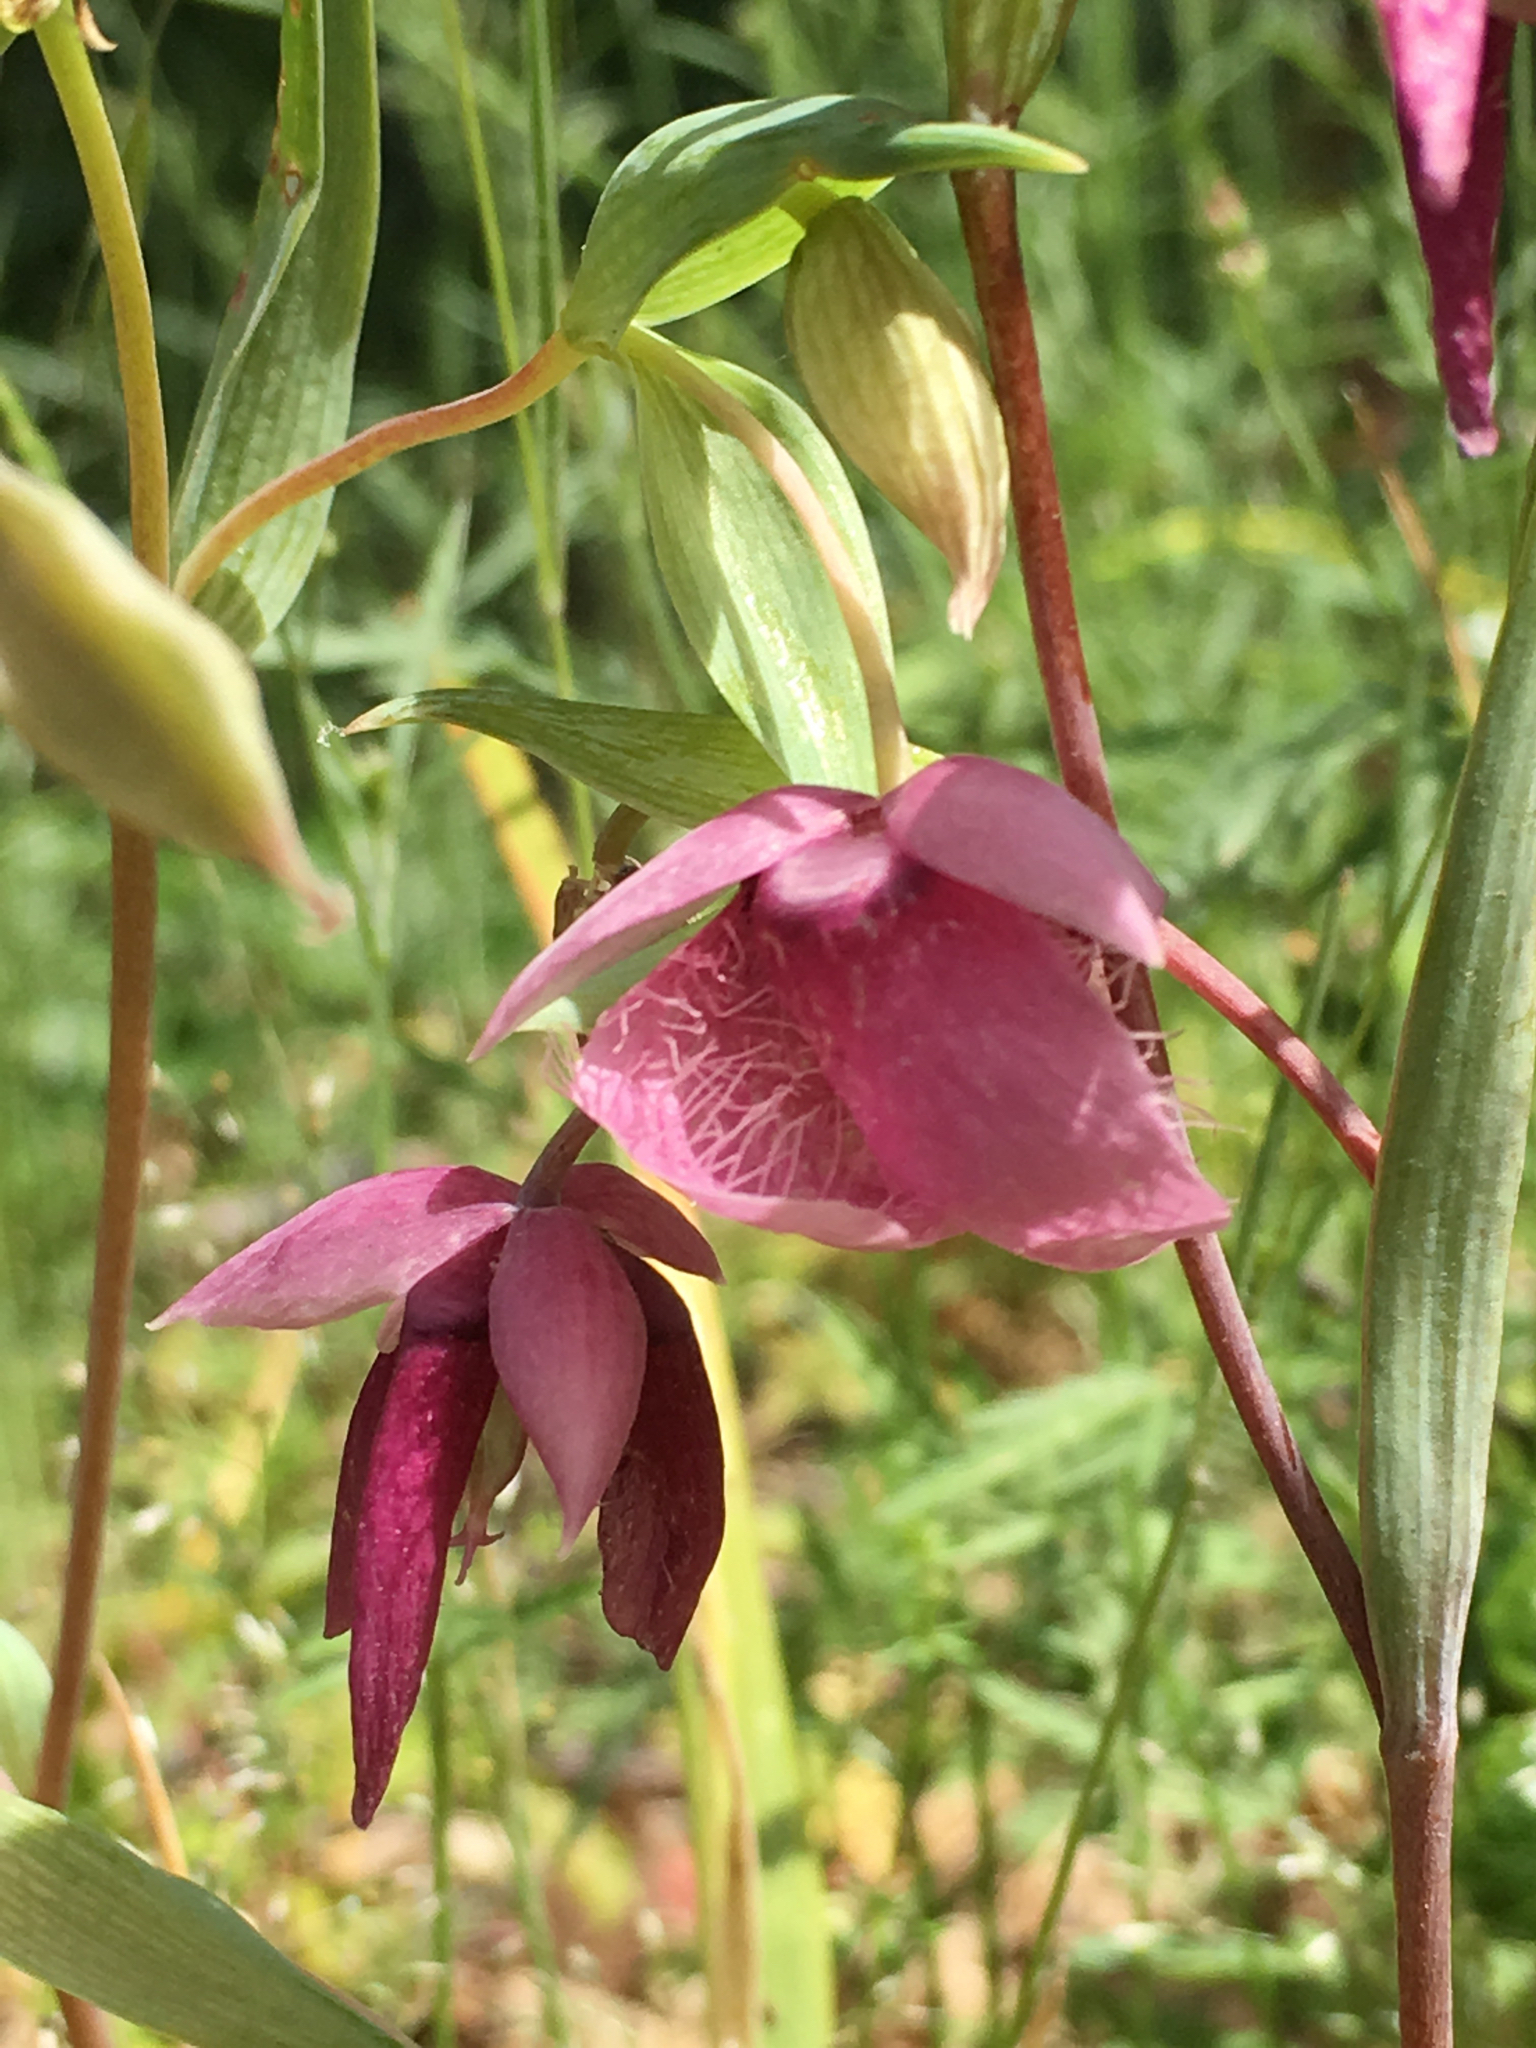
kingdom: Plantae
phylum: Tracheophyta
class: Liliopsida
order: Liliales
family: Liliaceae
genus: Calochortus
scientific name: Calochortus amoenus
